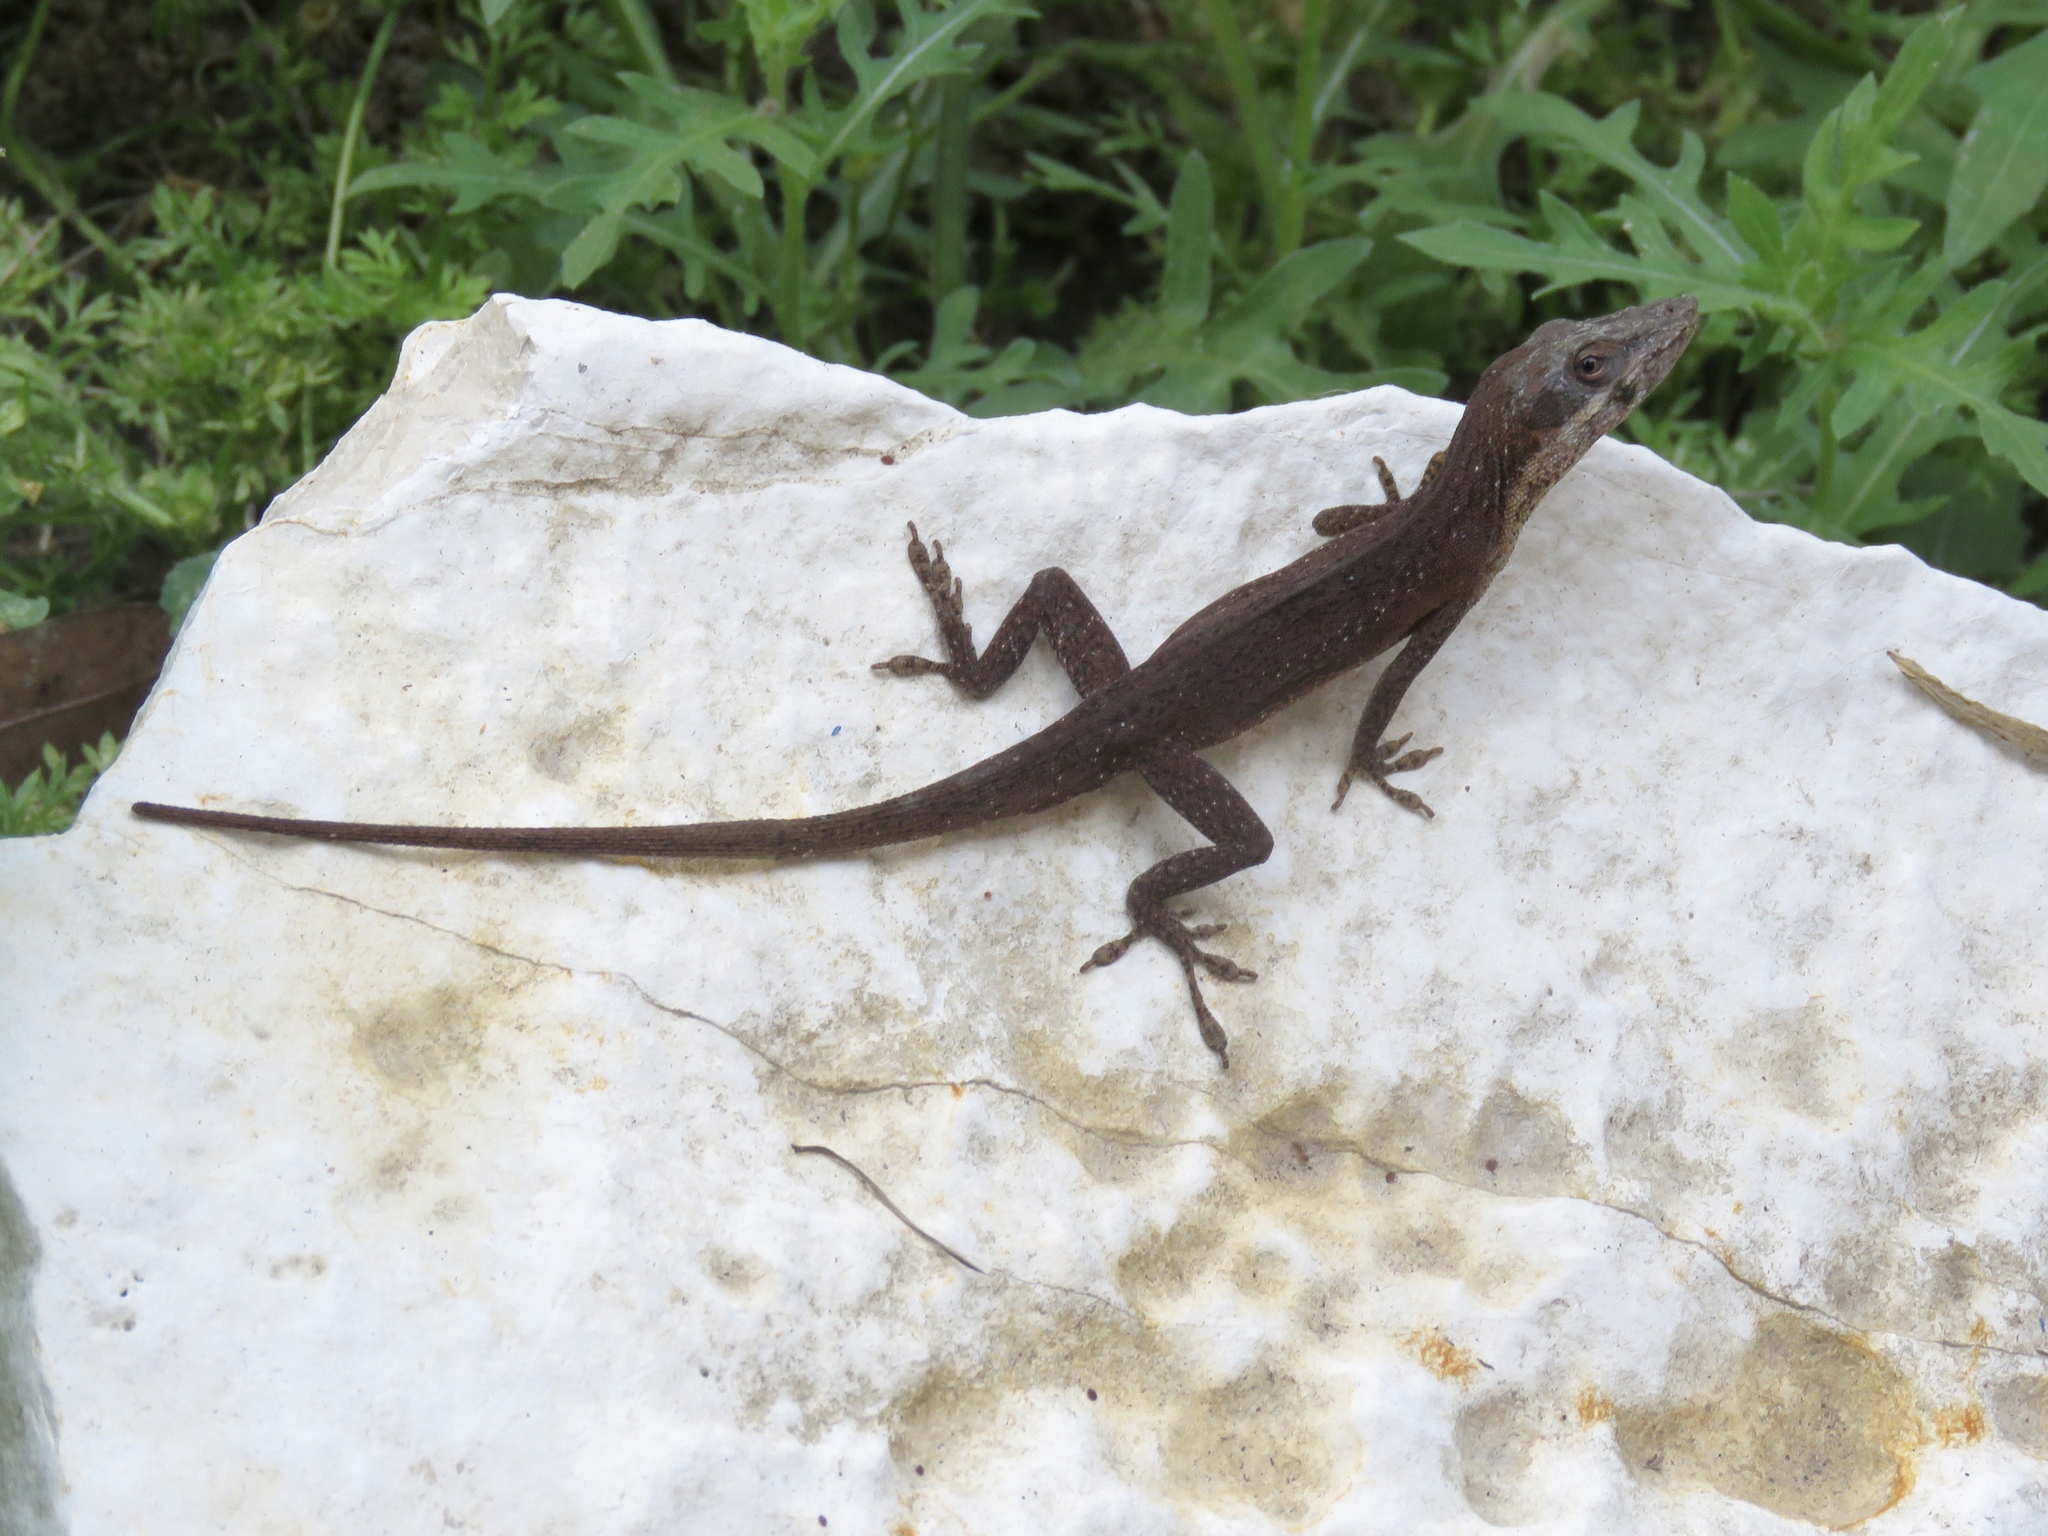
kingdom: Animalia
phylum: Chordata
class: Squamata
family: Dactyloidae
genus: Anolis
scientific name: Anolis carolinensis
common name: Green anole
